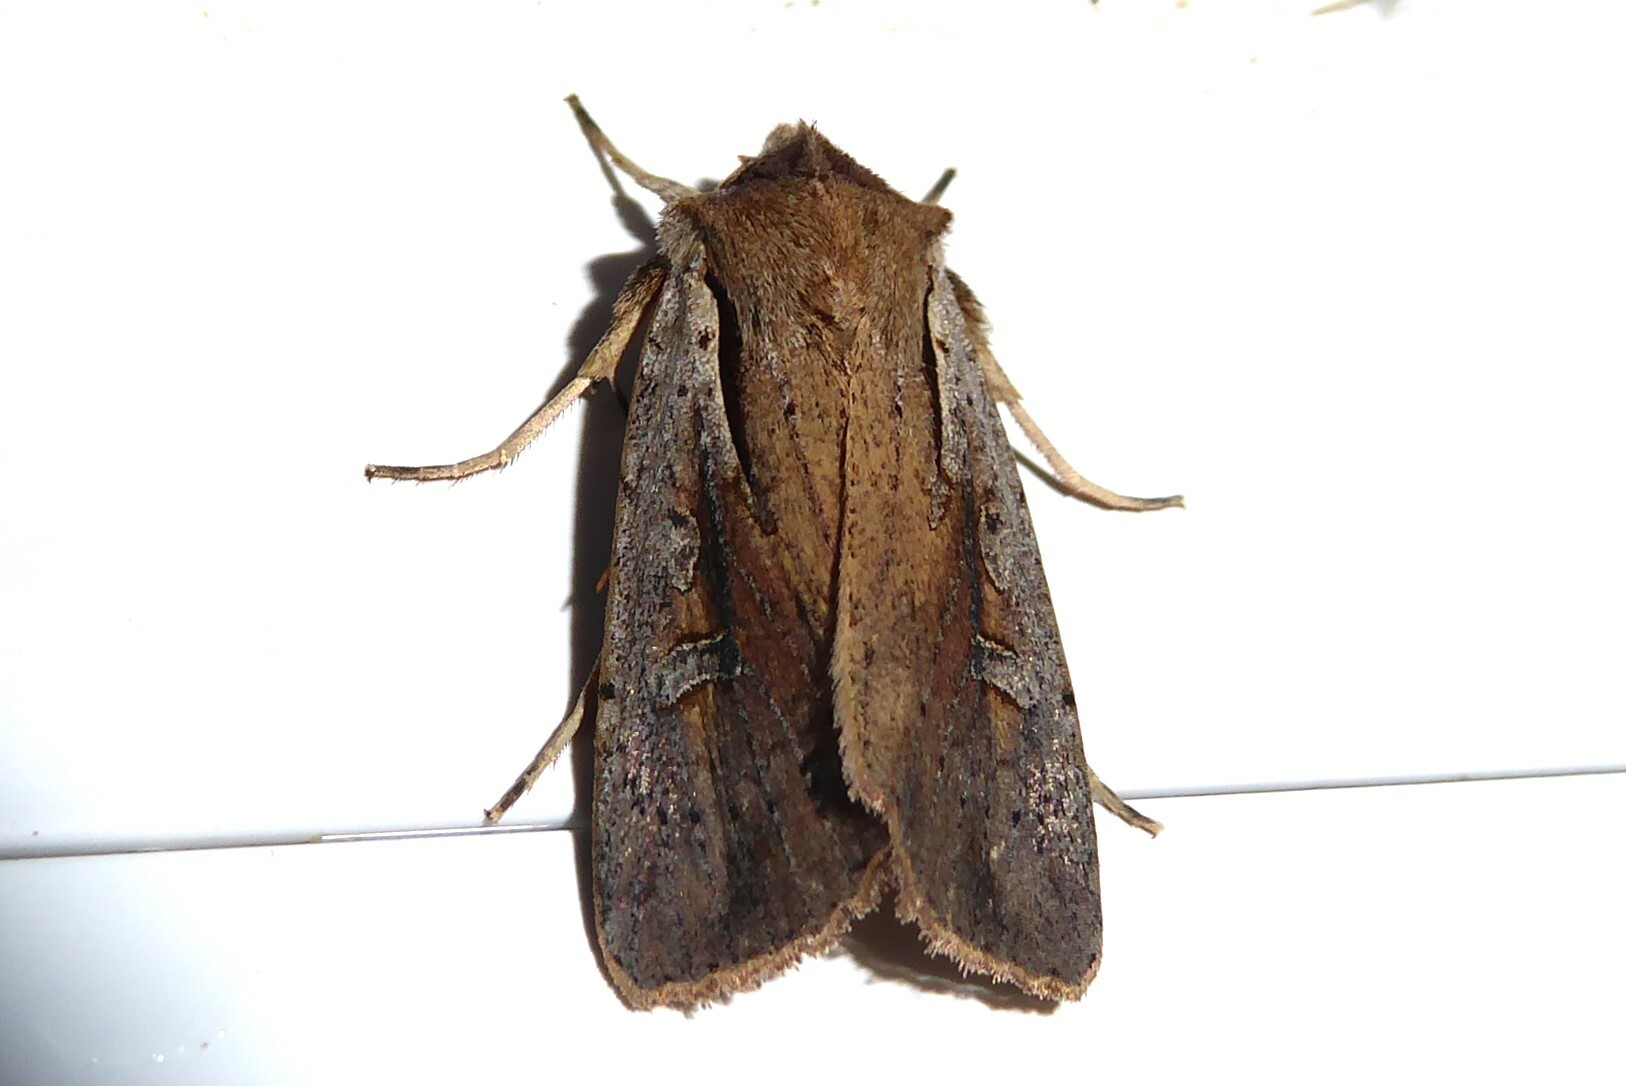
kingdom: Animalia
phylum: Arthropoda
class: Insecta
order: Lepidoptera
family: Noctuidae
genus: Ichneutica
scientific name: Ichneutica atristriga
